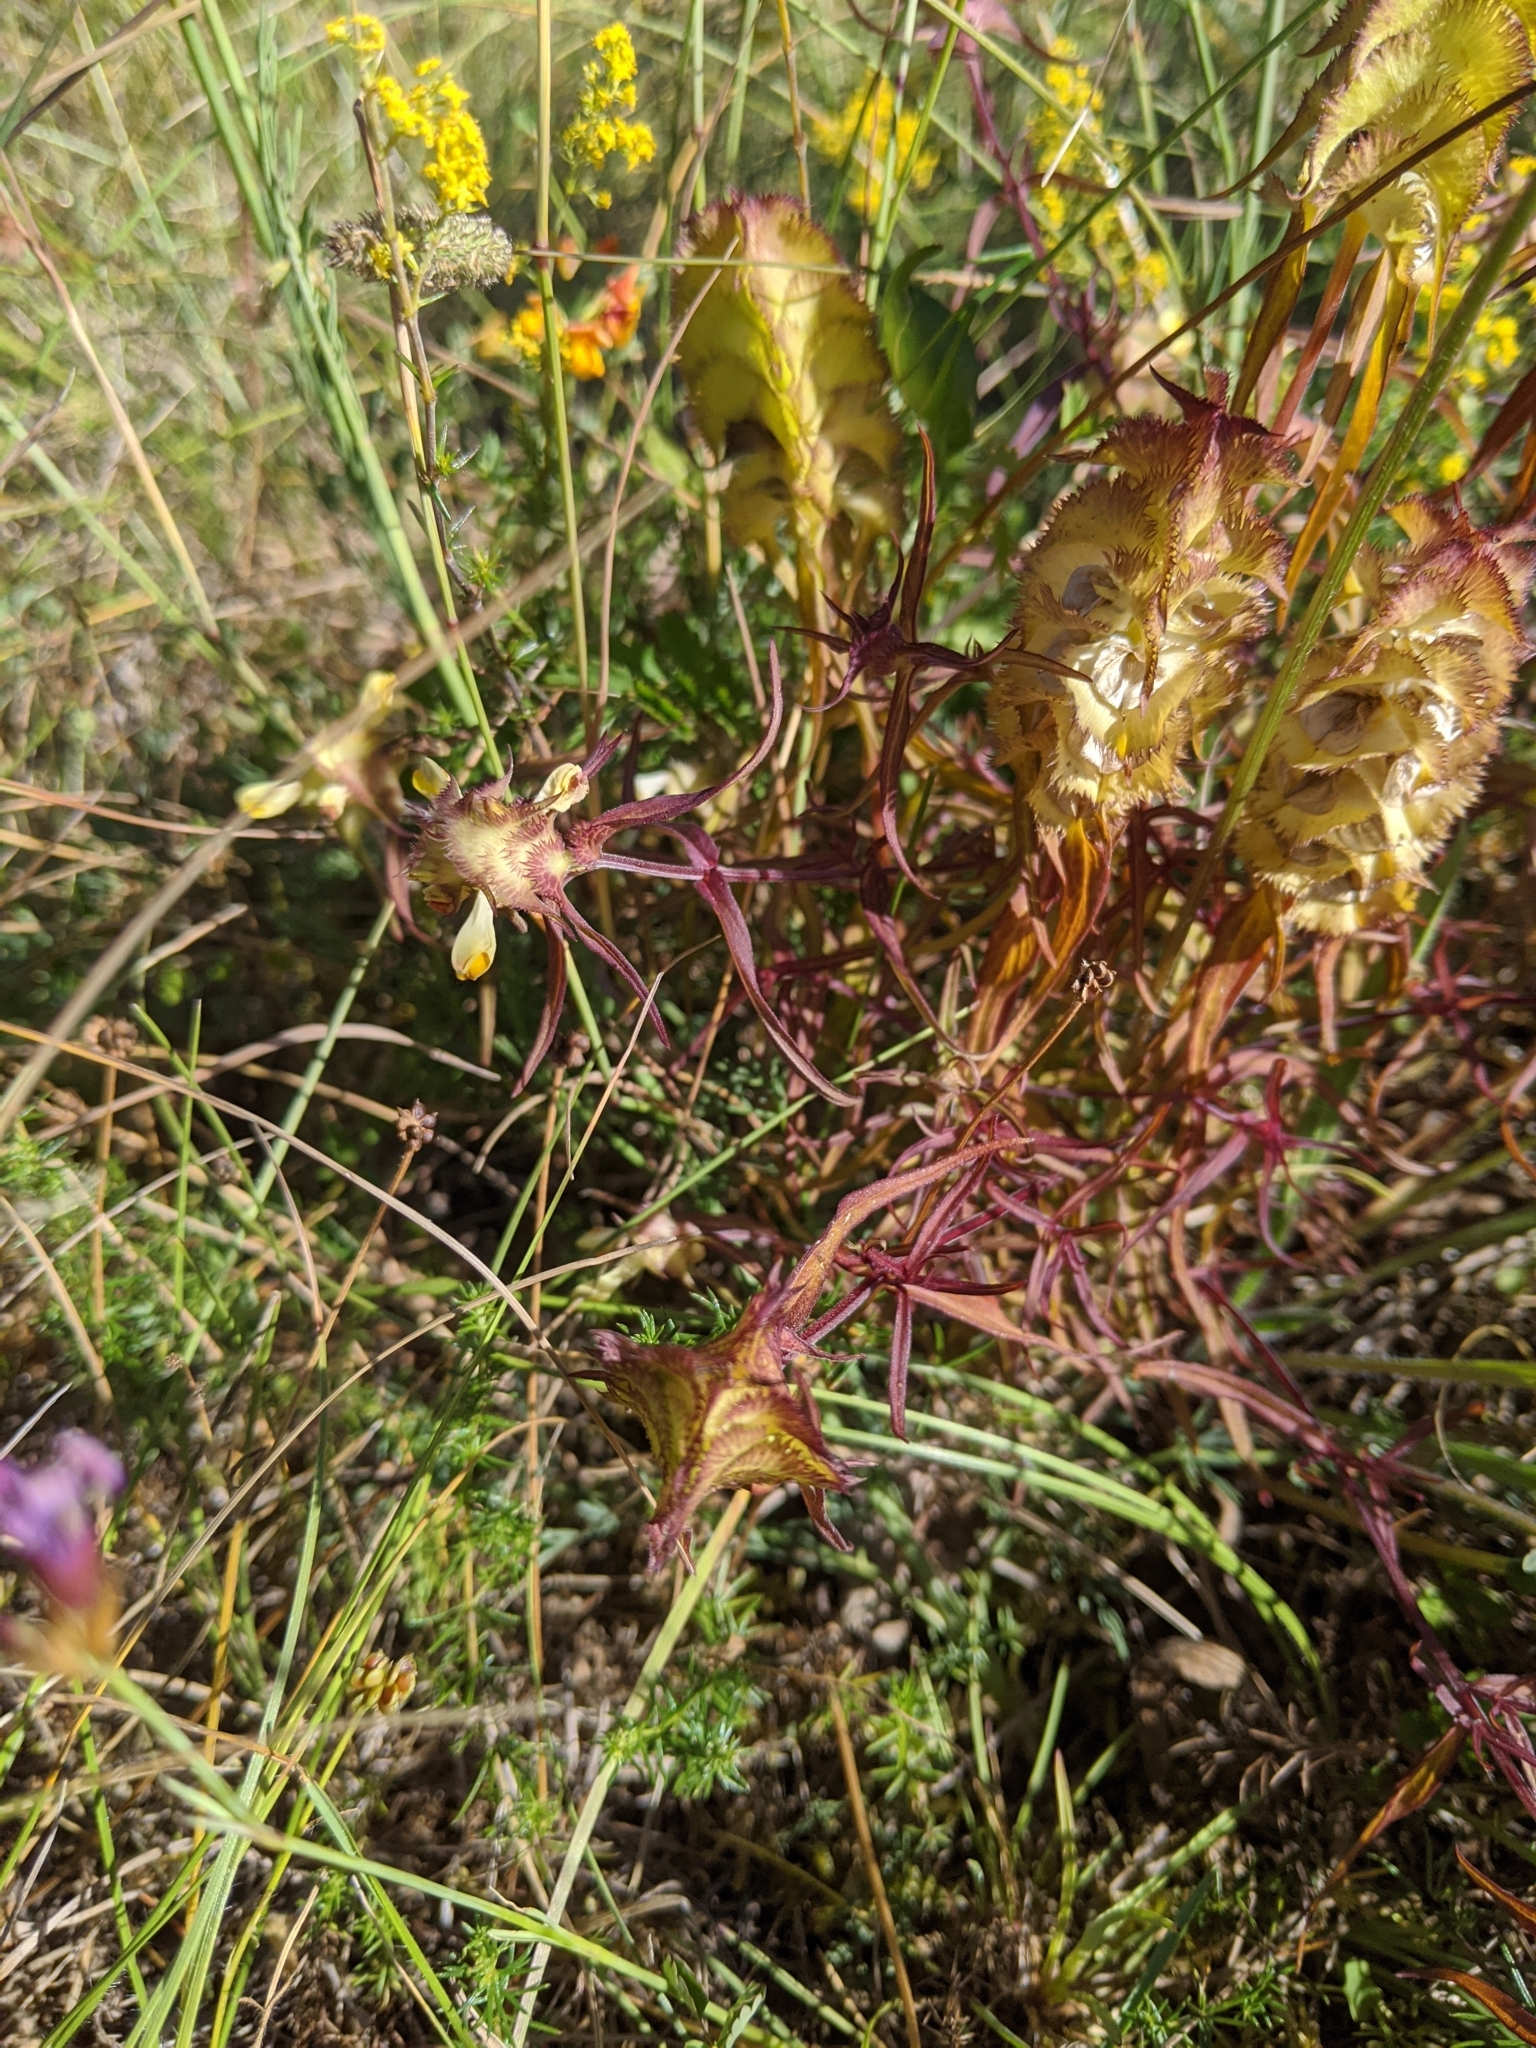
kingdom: Plantae
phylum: Tracheophyta
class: Magnoliopsida
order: Lamiales
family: Orobanchaceae
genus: Melampyrum
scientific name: Melampyrum cristatum
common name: Crested cow-wheat
